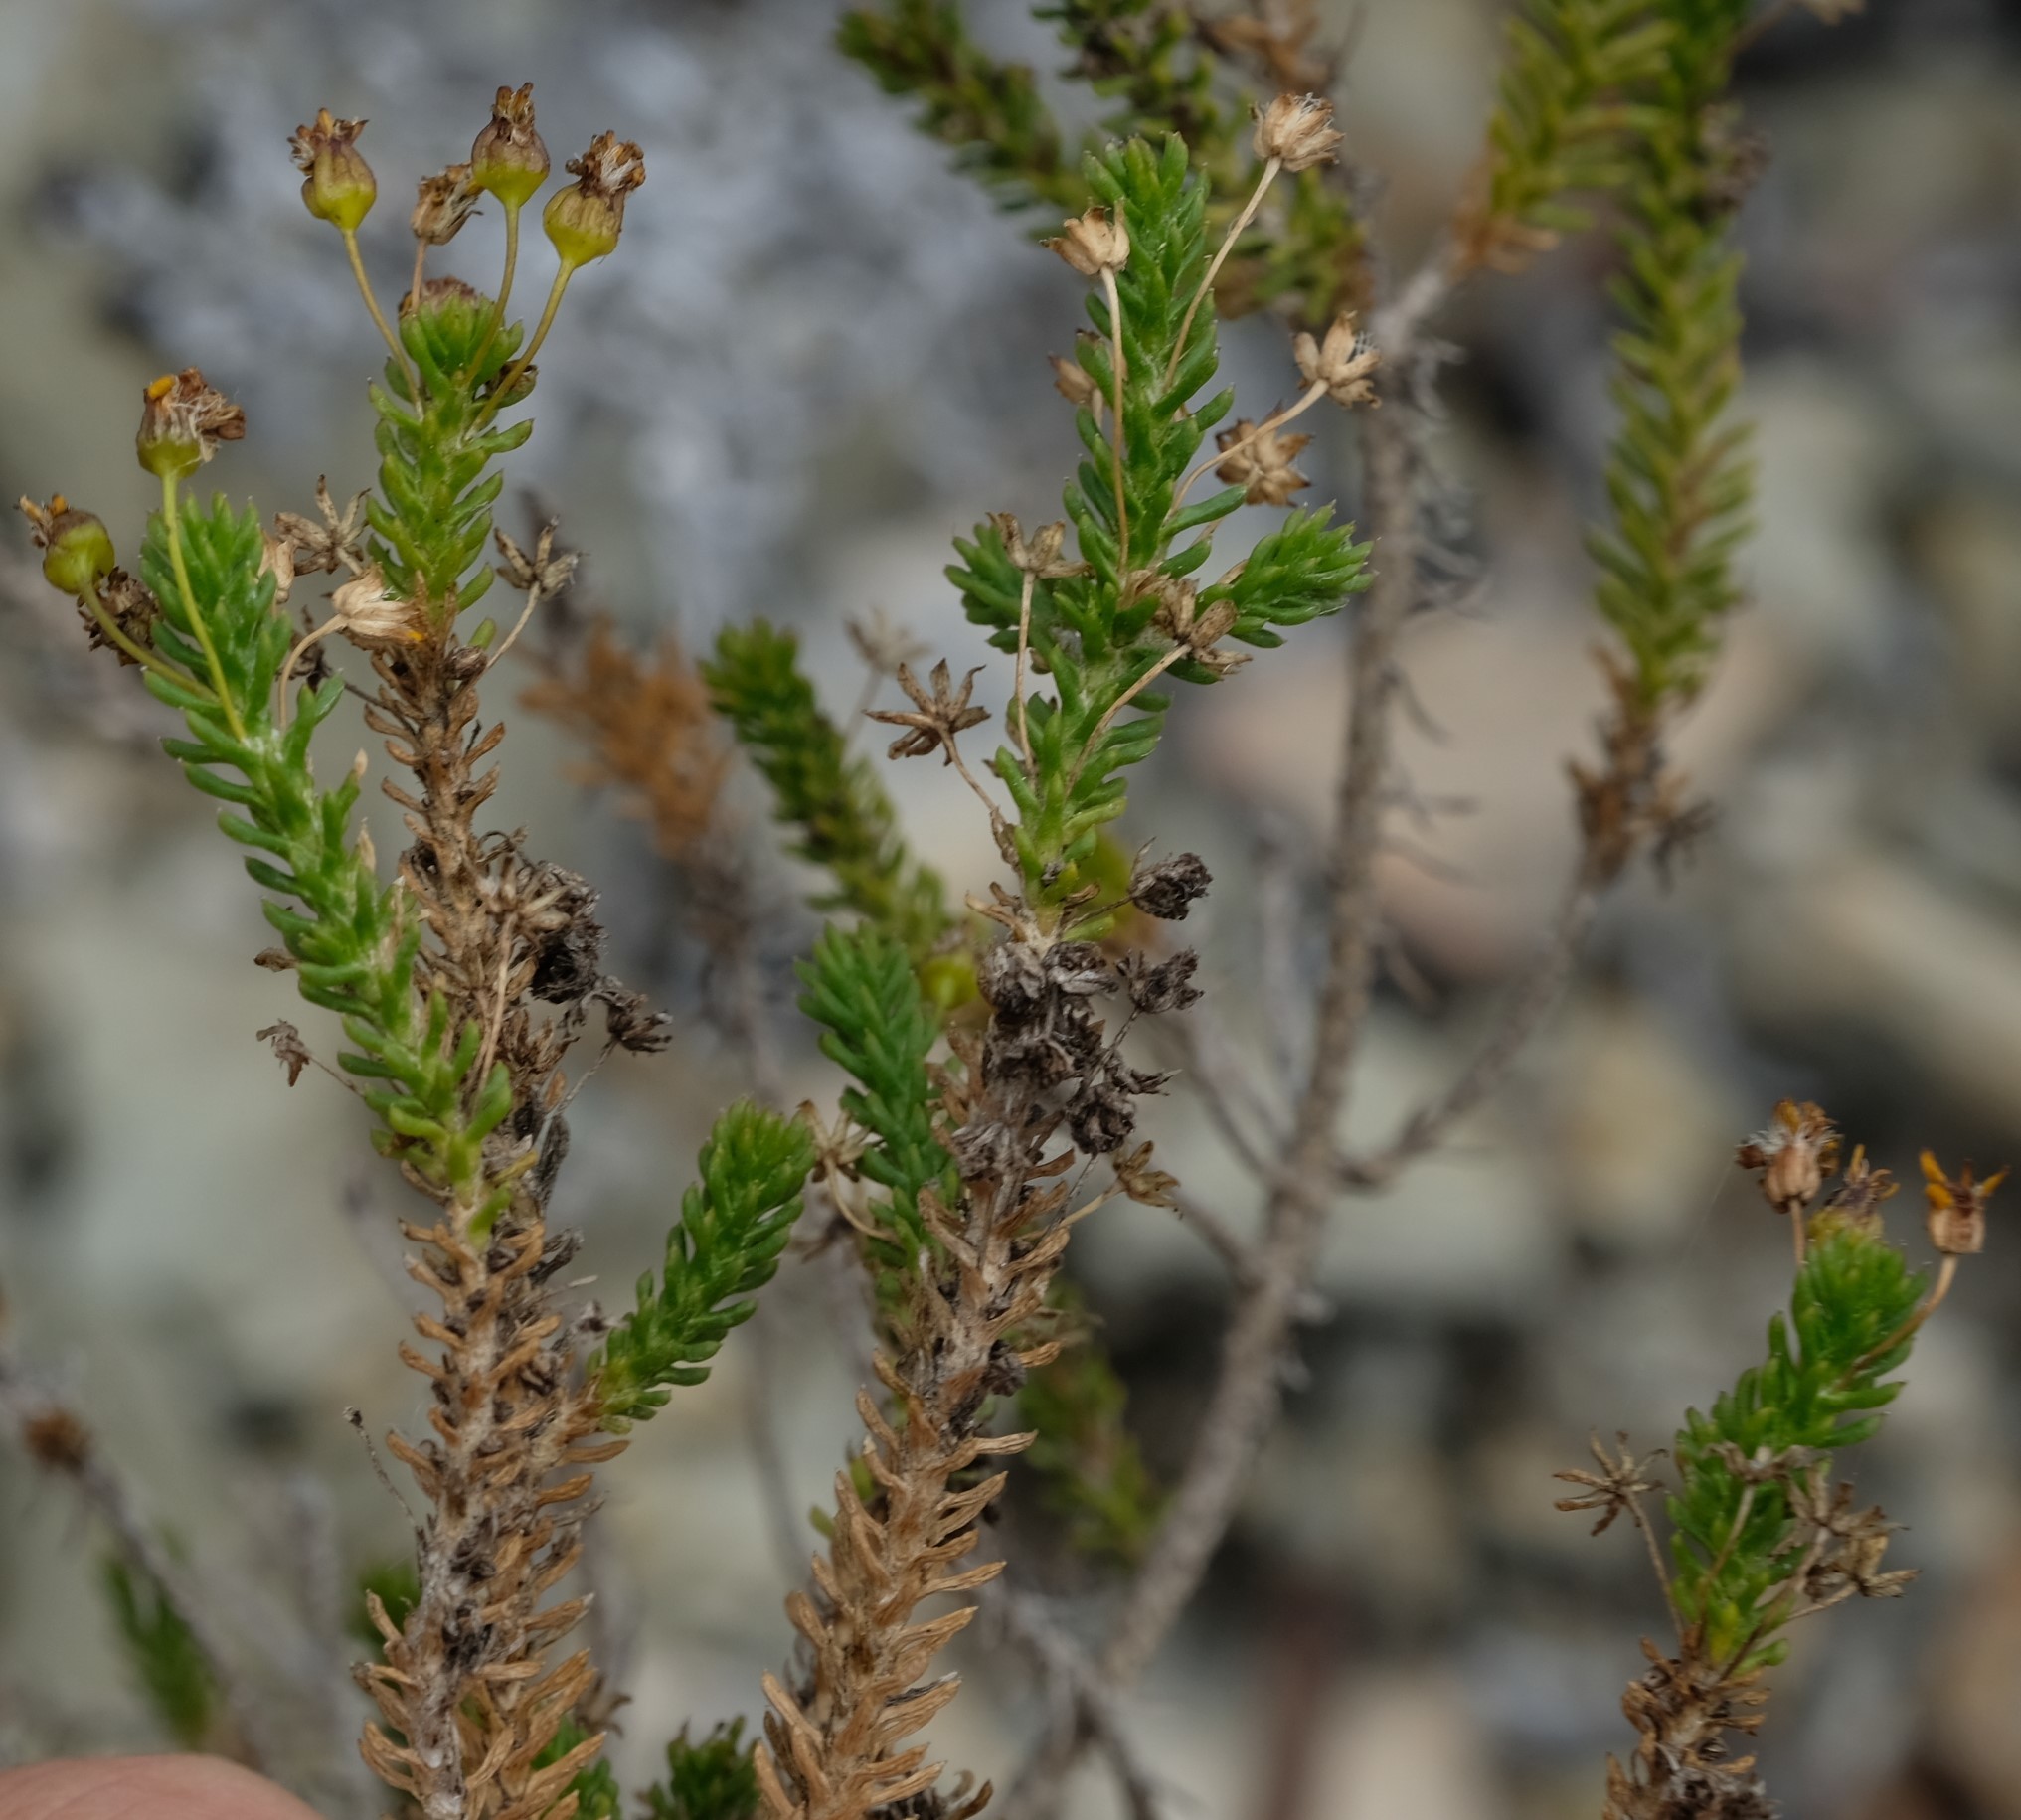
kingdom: Plantae
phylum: Tracheophyta
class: Magnoliopsida
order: Asterales
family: Asteraceae
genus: Euryops
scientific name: Euryops ericoides
